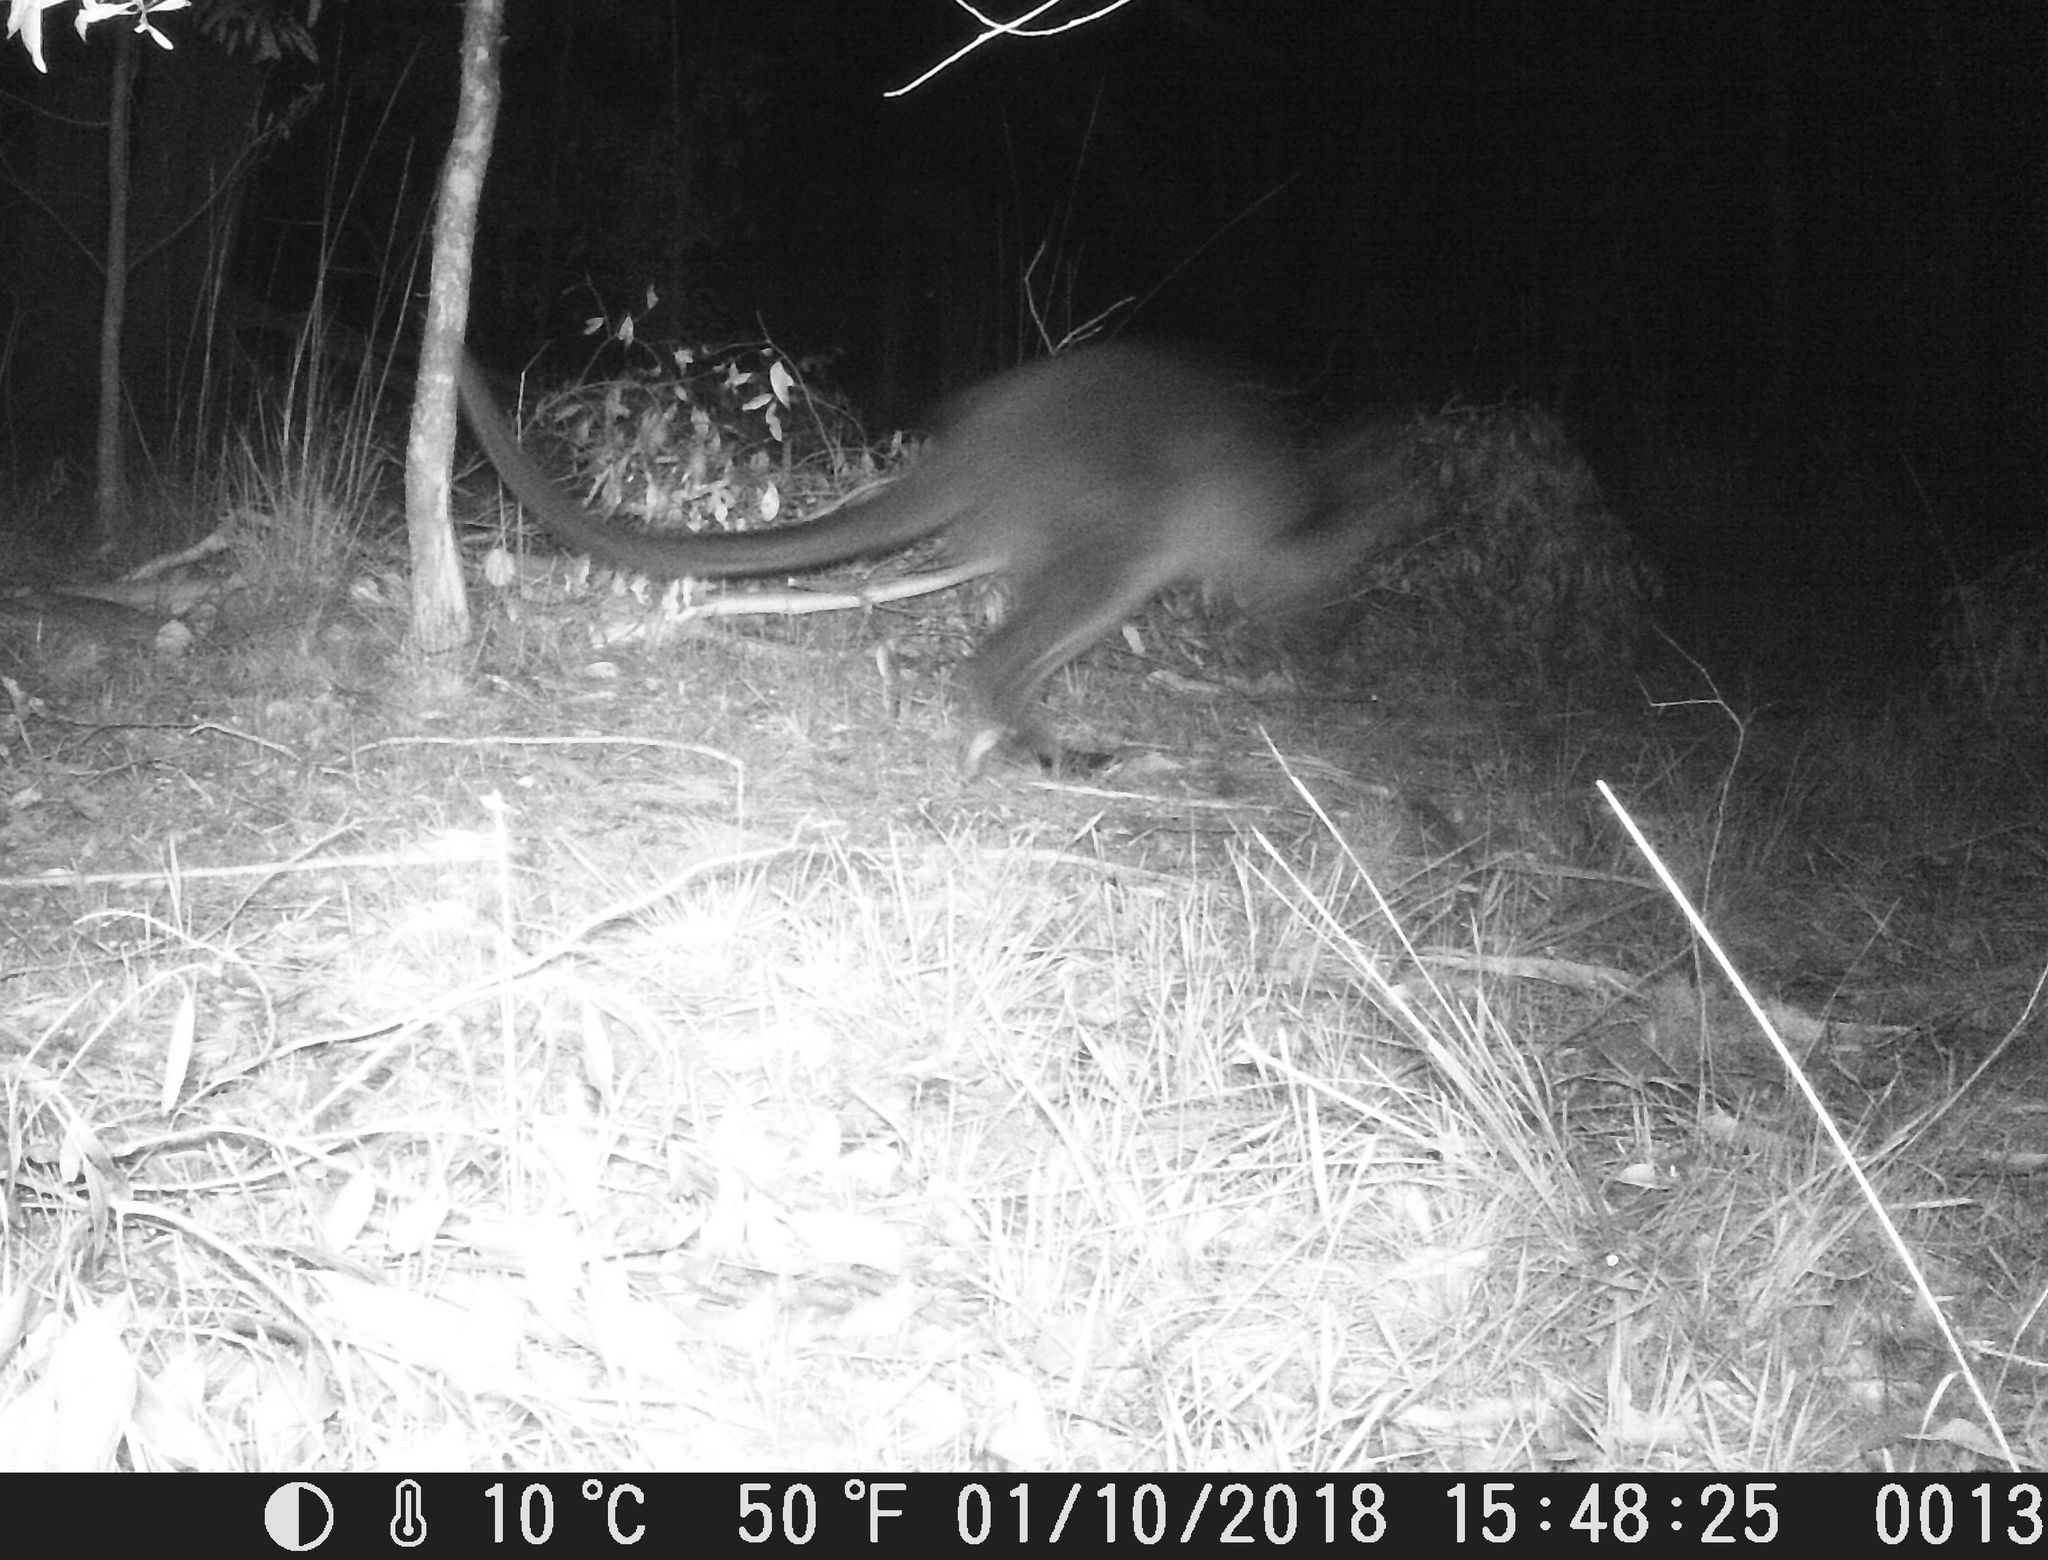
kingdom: Animalia
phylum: Chordata
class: Mammalia
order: Diprotodontia
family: Macropodidae
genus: Wallabia
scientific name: Wallabia bicolor
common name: Swamp wallaby
